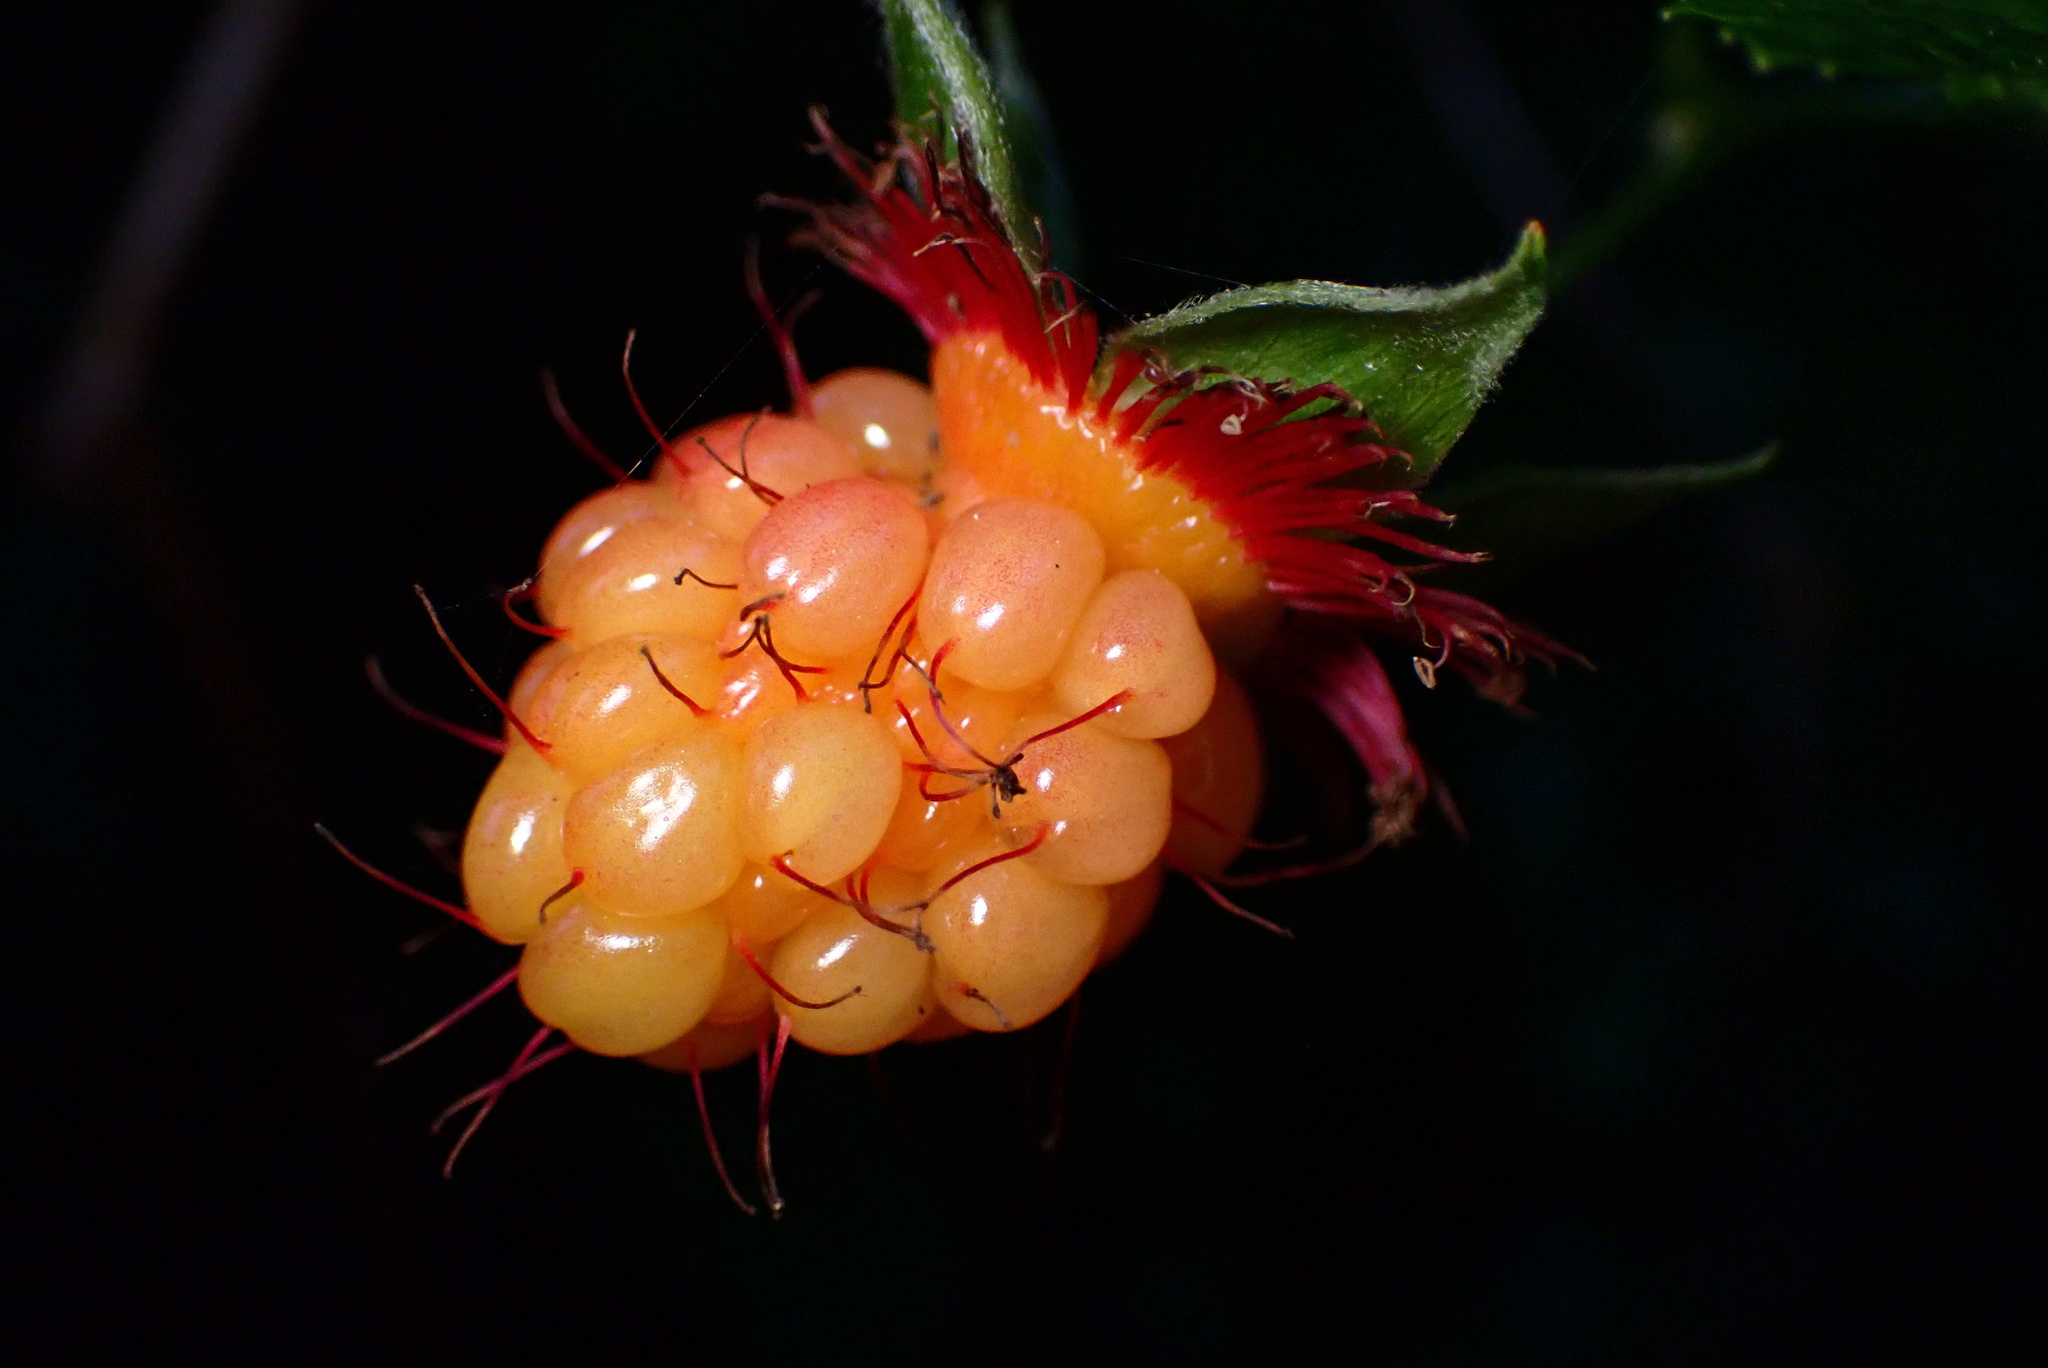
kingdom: Plantae
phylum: Tracheophyta
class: Magnoliopsida
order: Rosales
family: Rosaceae
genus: Rubus
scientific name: Rubus spectabilis
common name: Salmonberry
